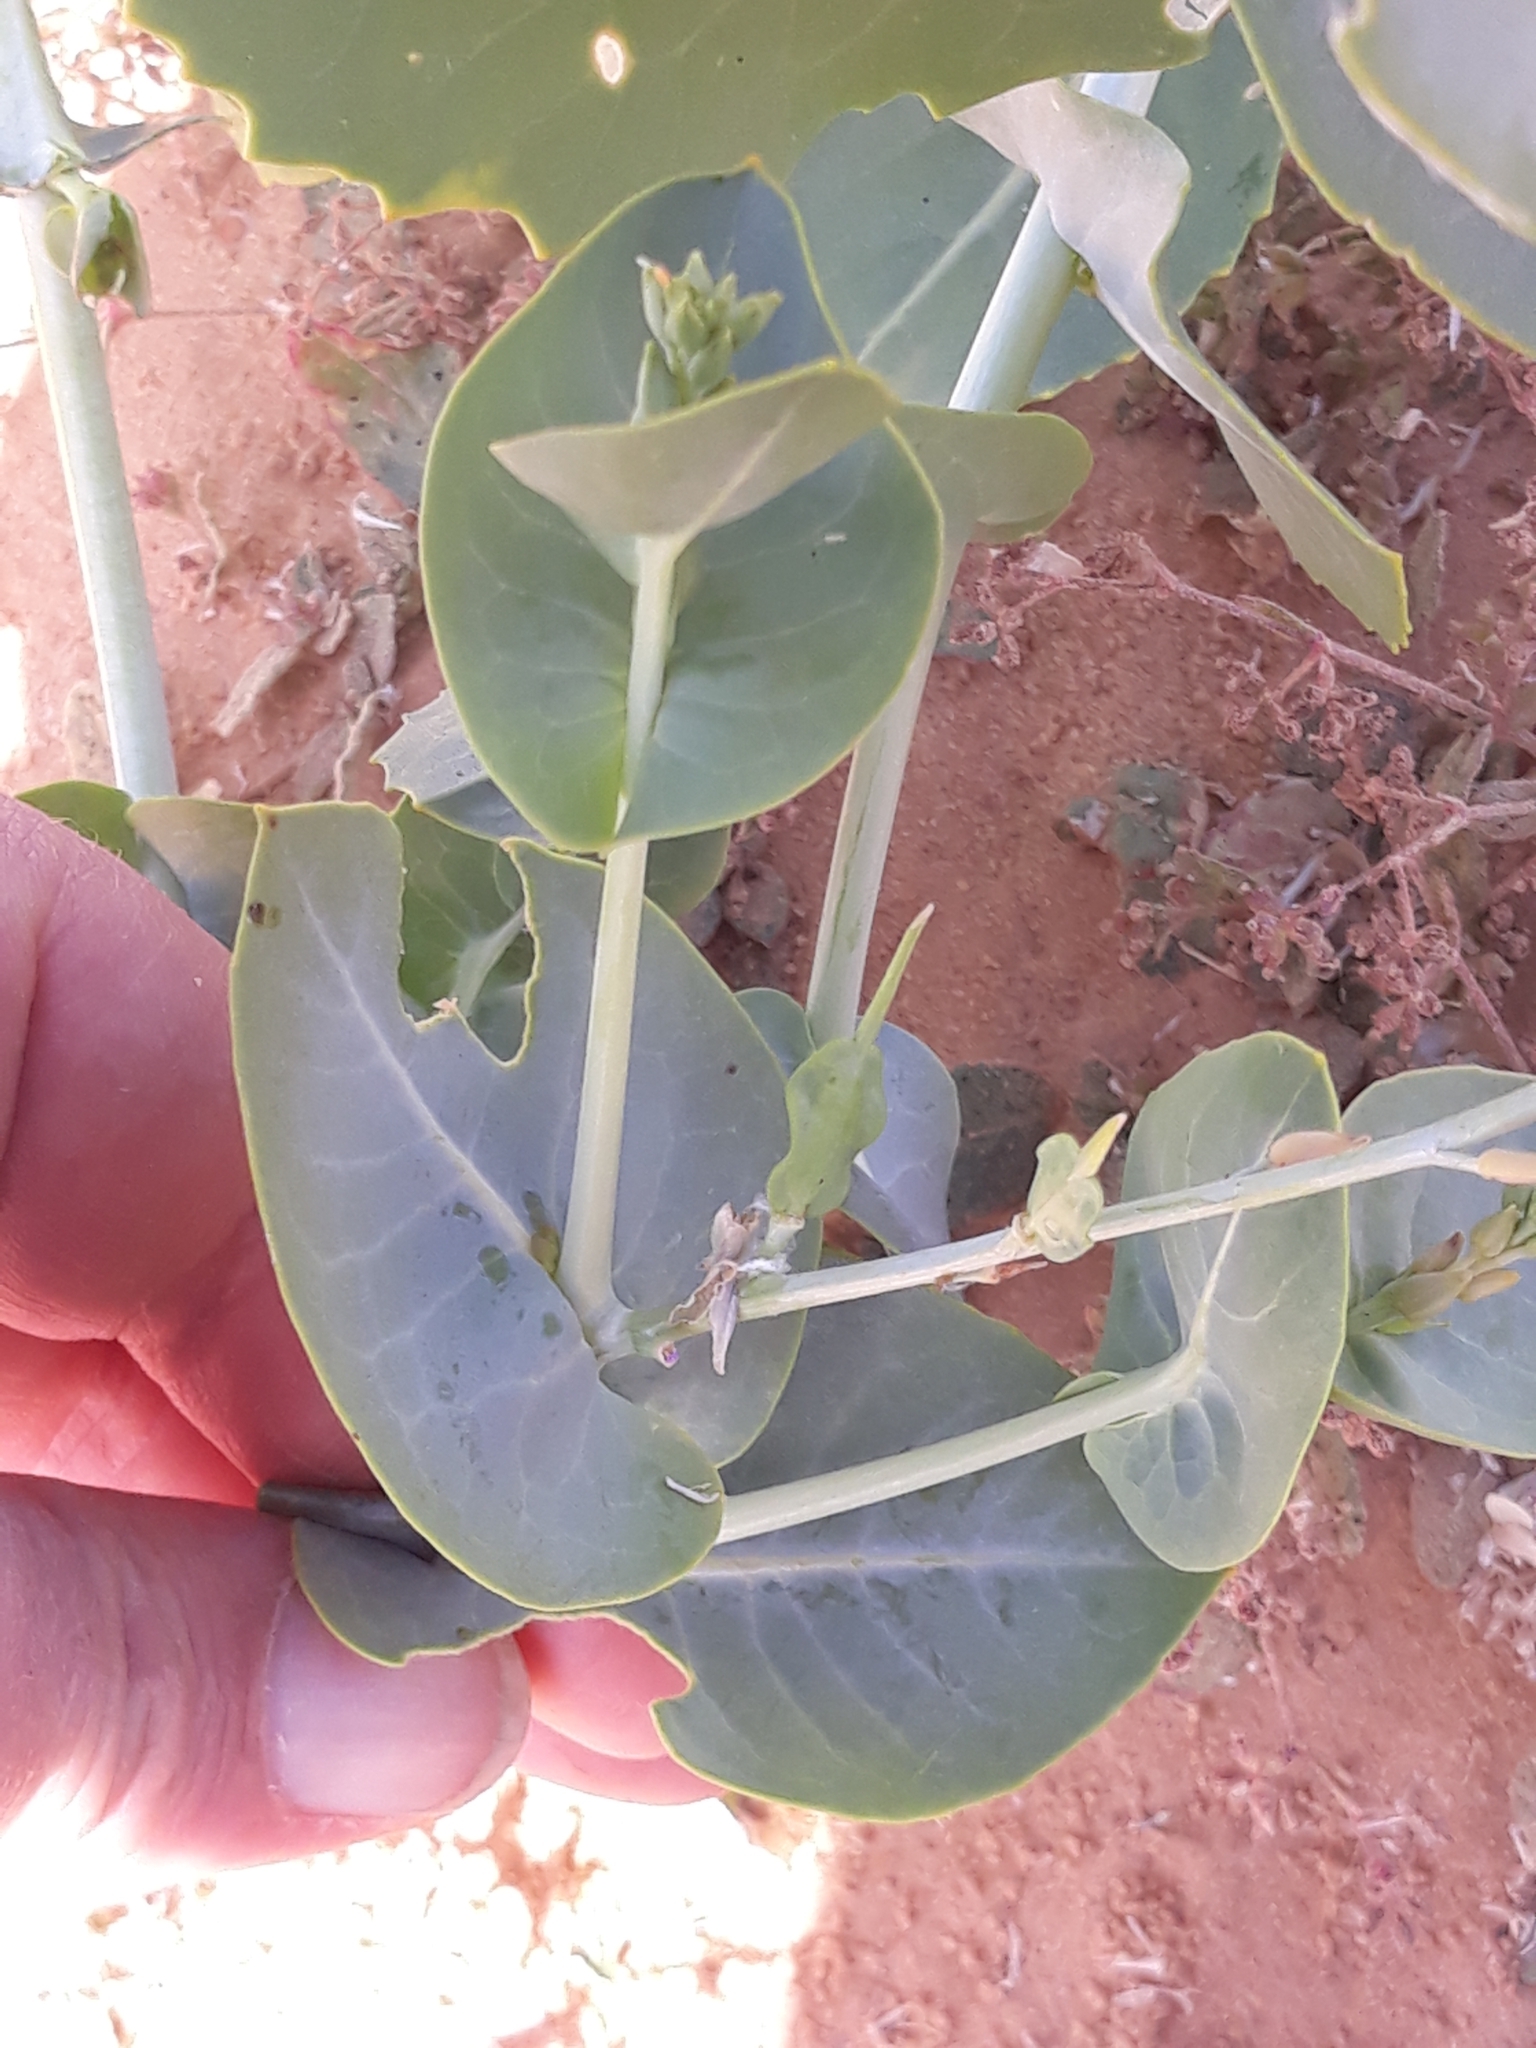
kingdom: Plantae
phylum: Tracheophyta
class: Magnoliopsida
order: Brassicales
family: Brassicaceae
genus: Schouwia
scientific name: Schouwia purpurea
